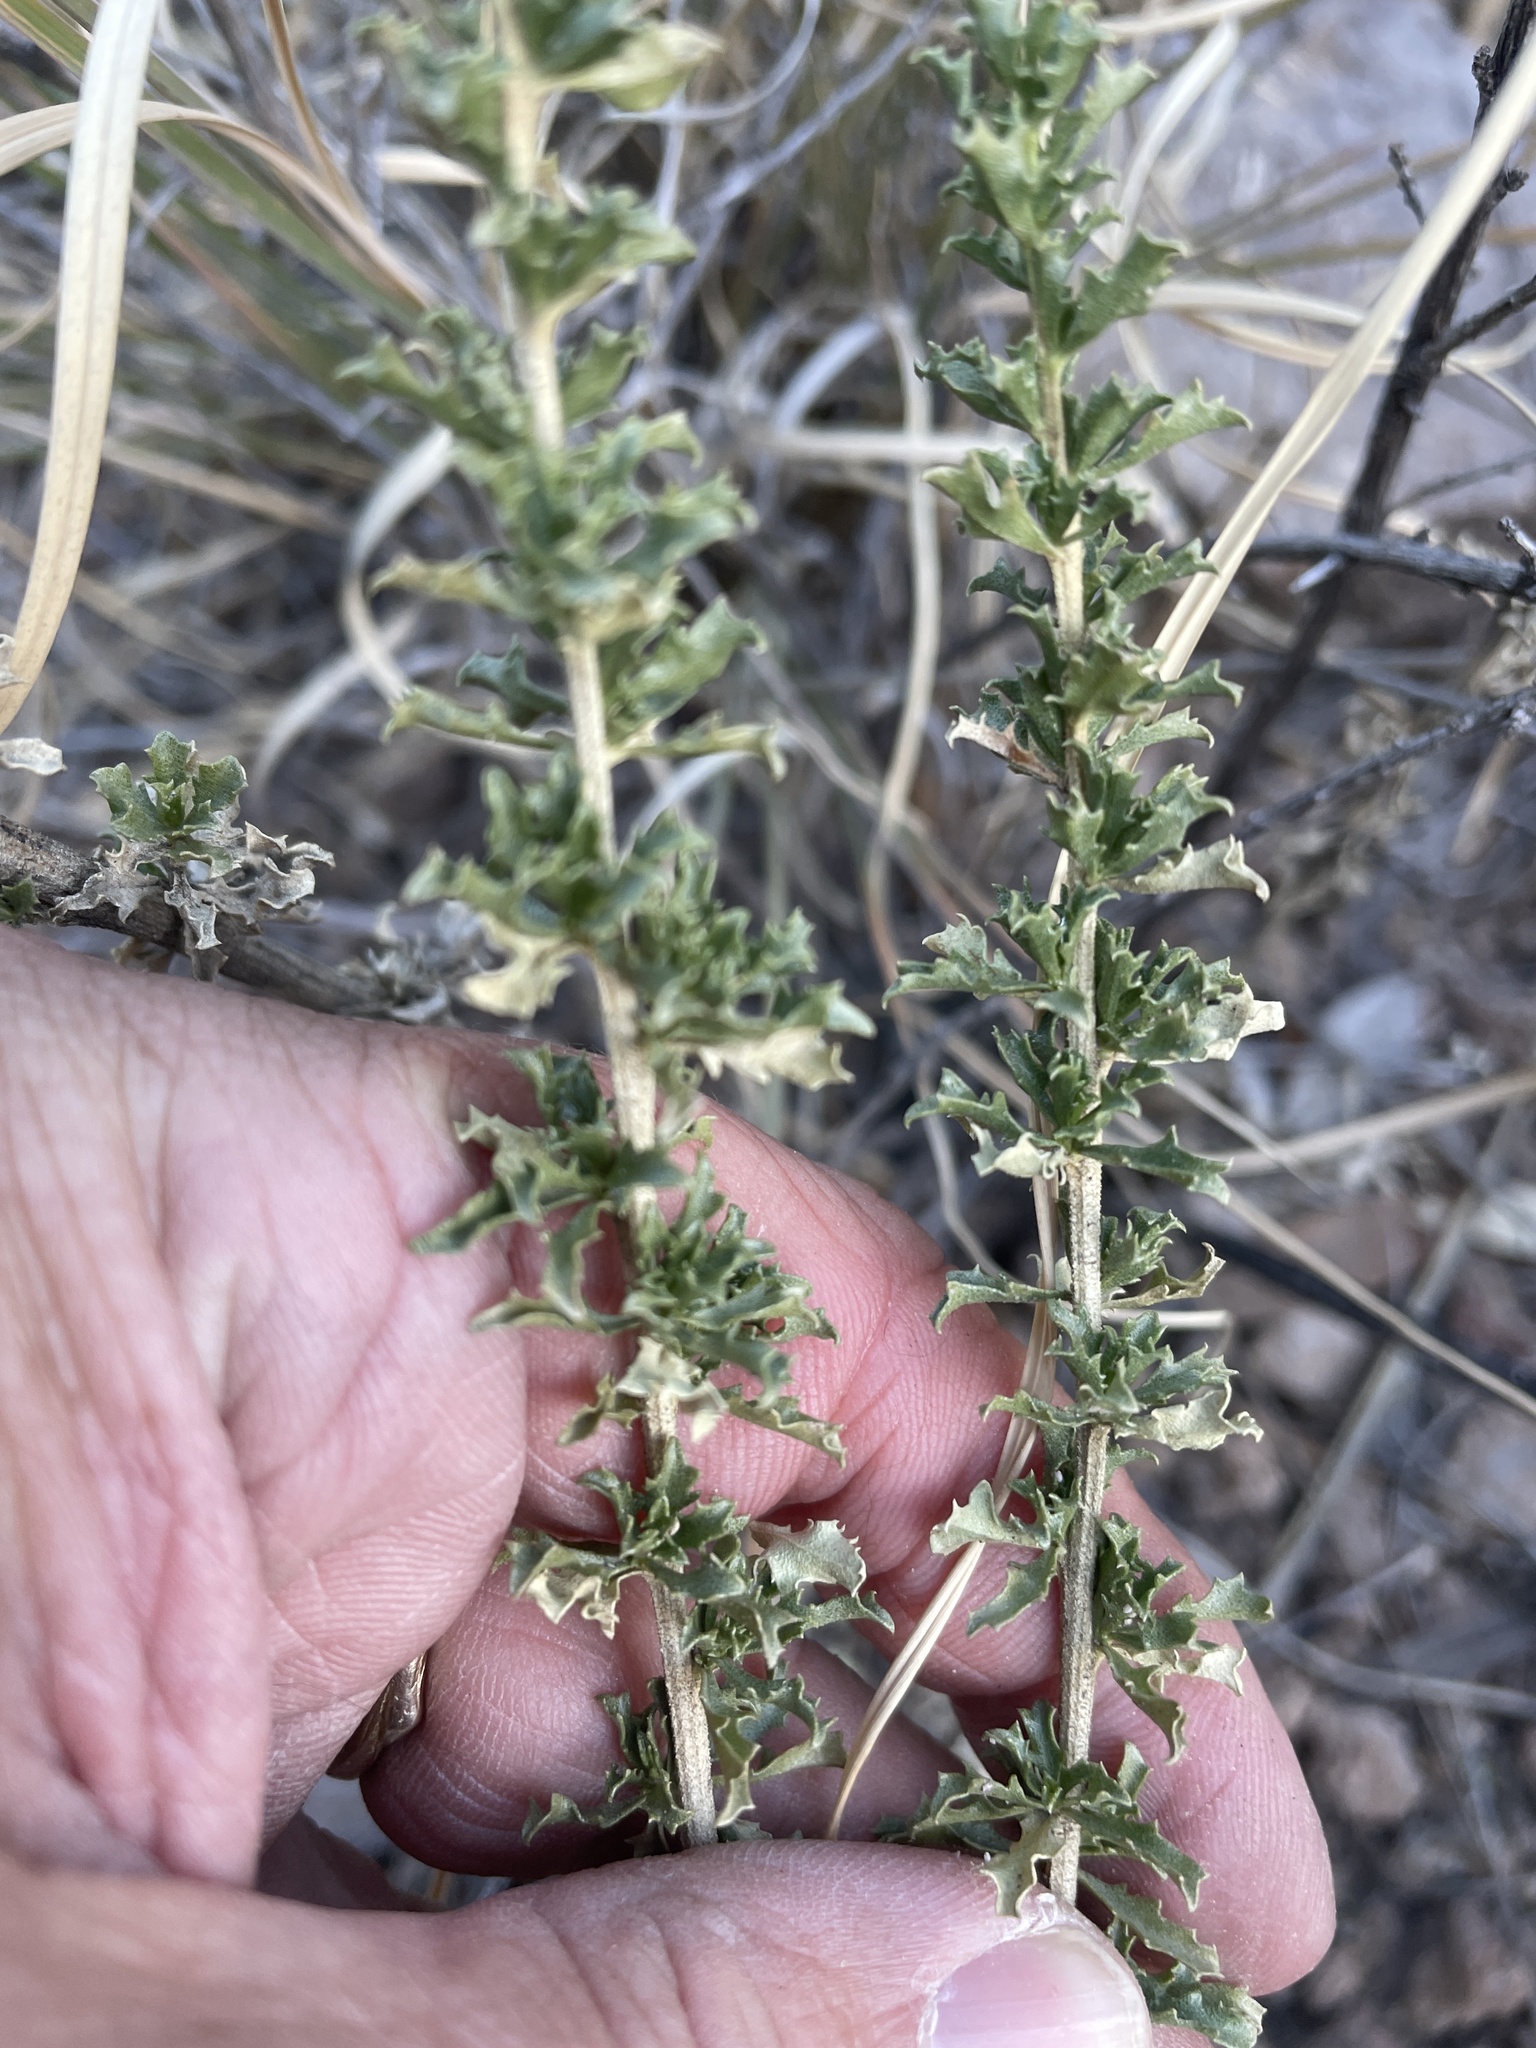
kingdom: Plantae
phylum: Tracheophyta
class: Magnoliopsida
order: Asterales
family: Asteraceae
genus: Brickellia
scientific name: Brickellia laciniata
